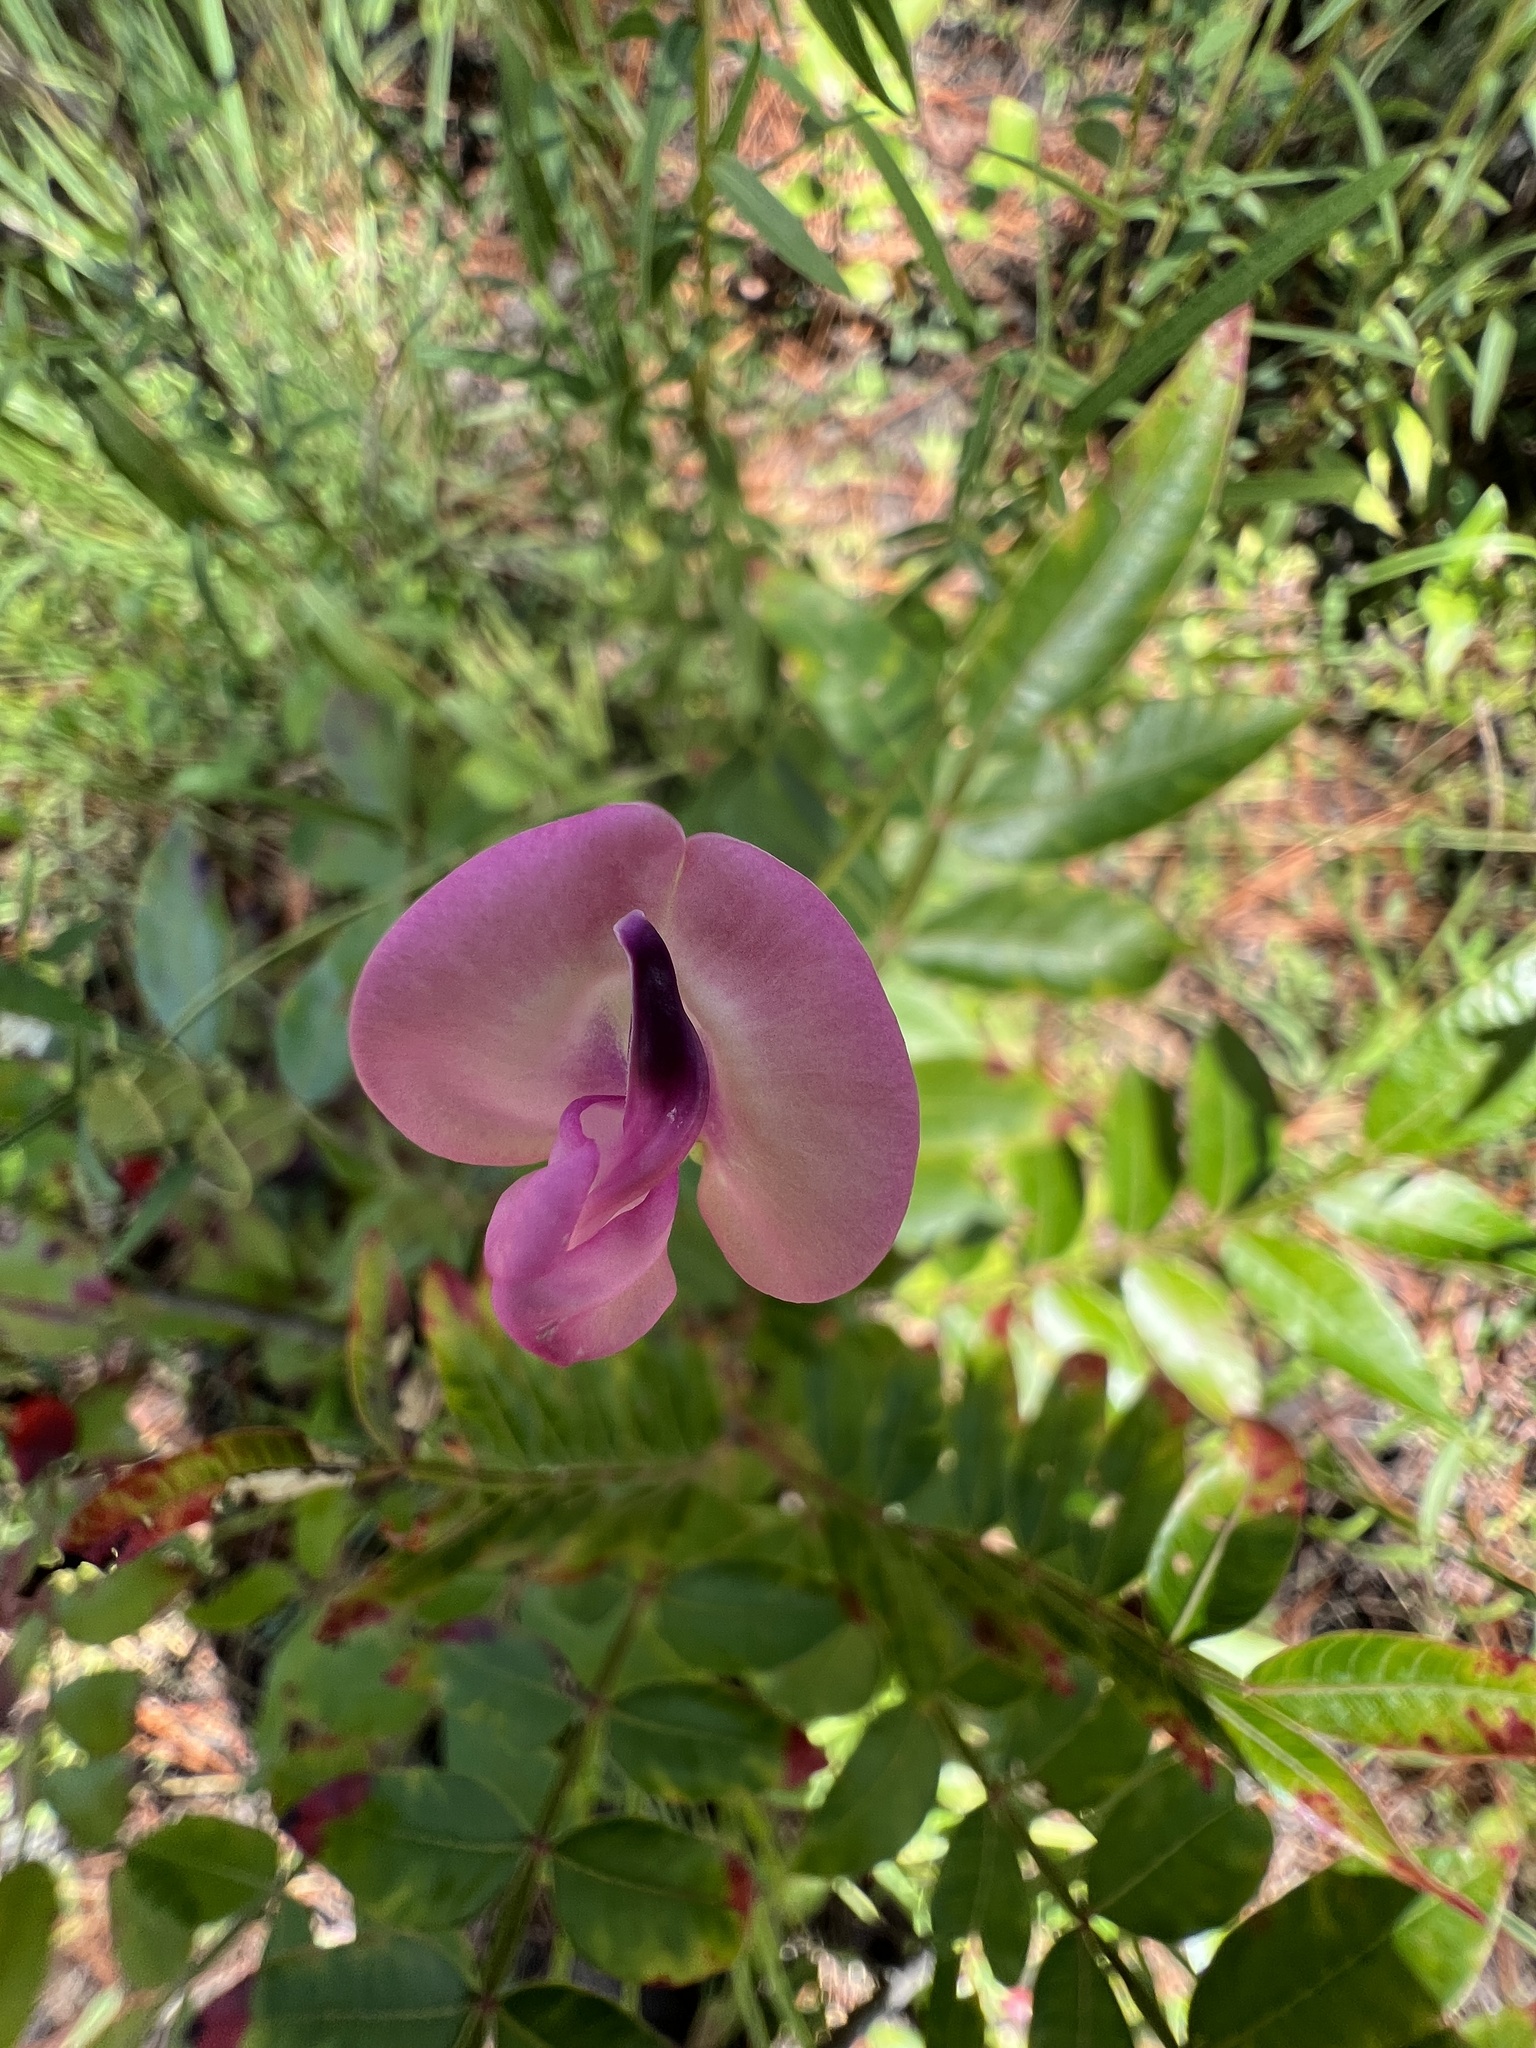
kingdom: Plantae
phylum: Tracheophyta
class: Magnoliopsida
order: Fabales
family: Fabaceae
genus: Strophostyles
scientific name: Strophostyles umbellata
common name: Perennial wild bean
